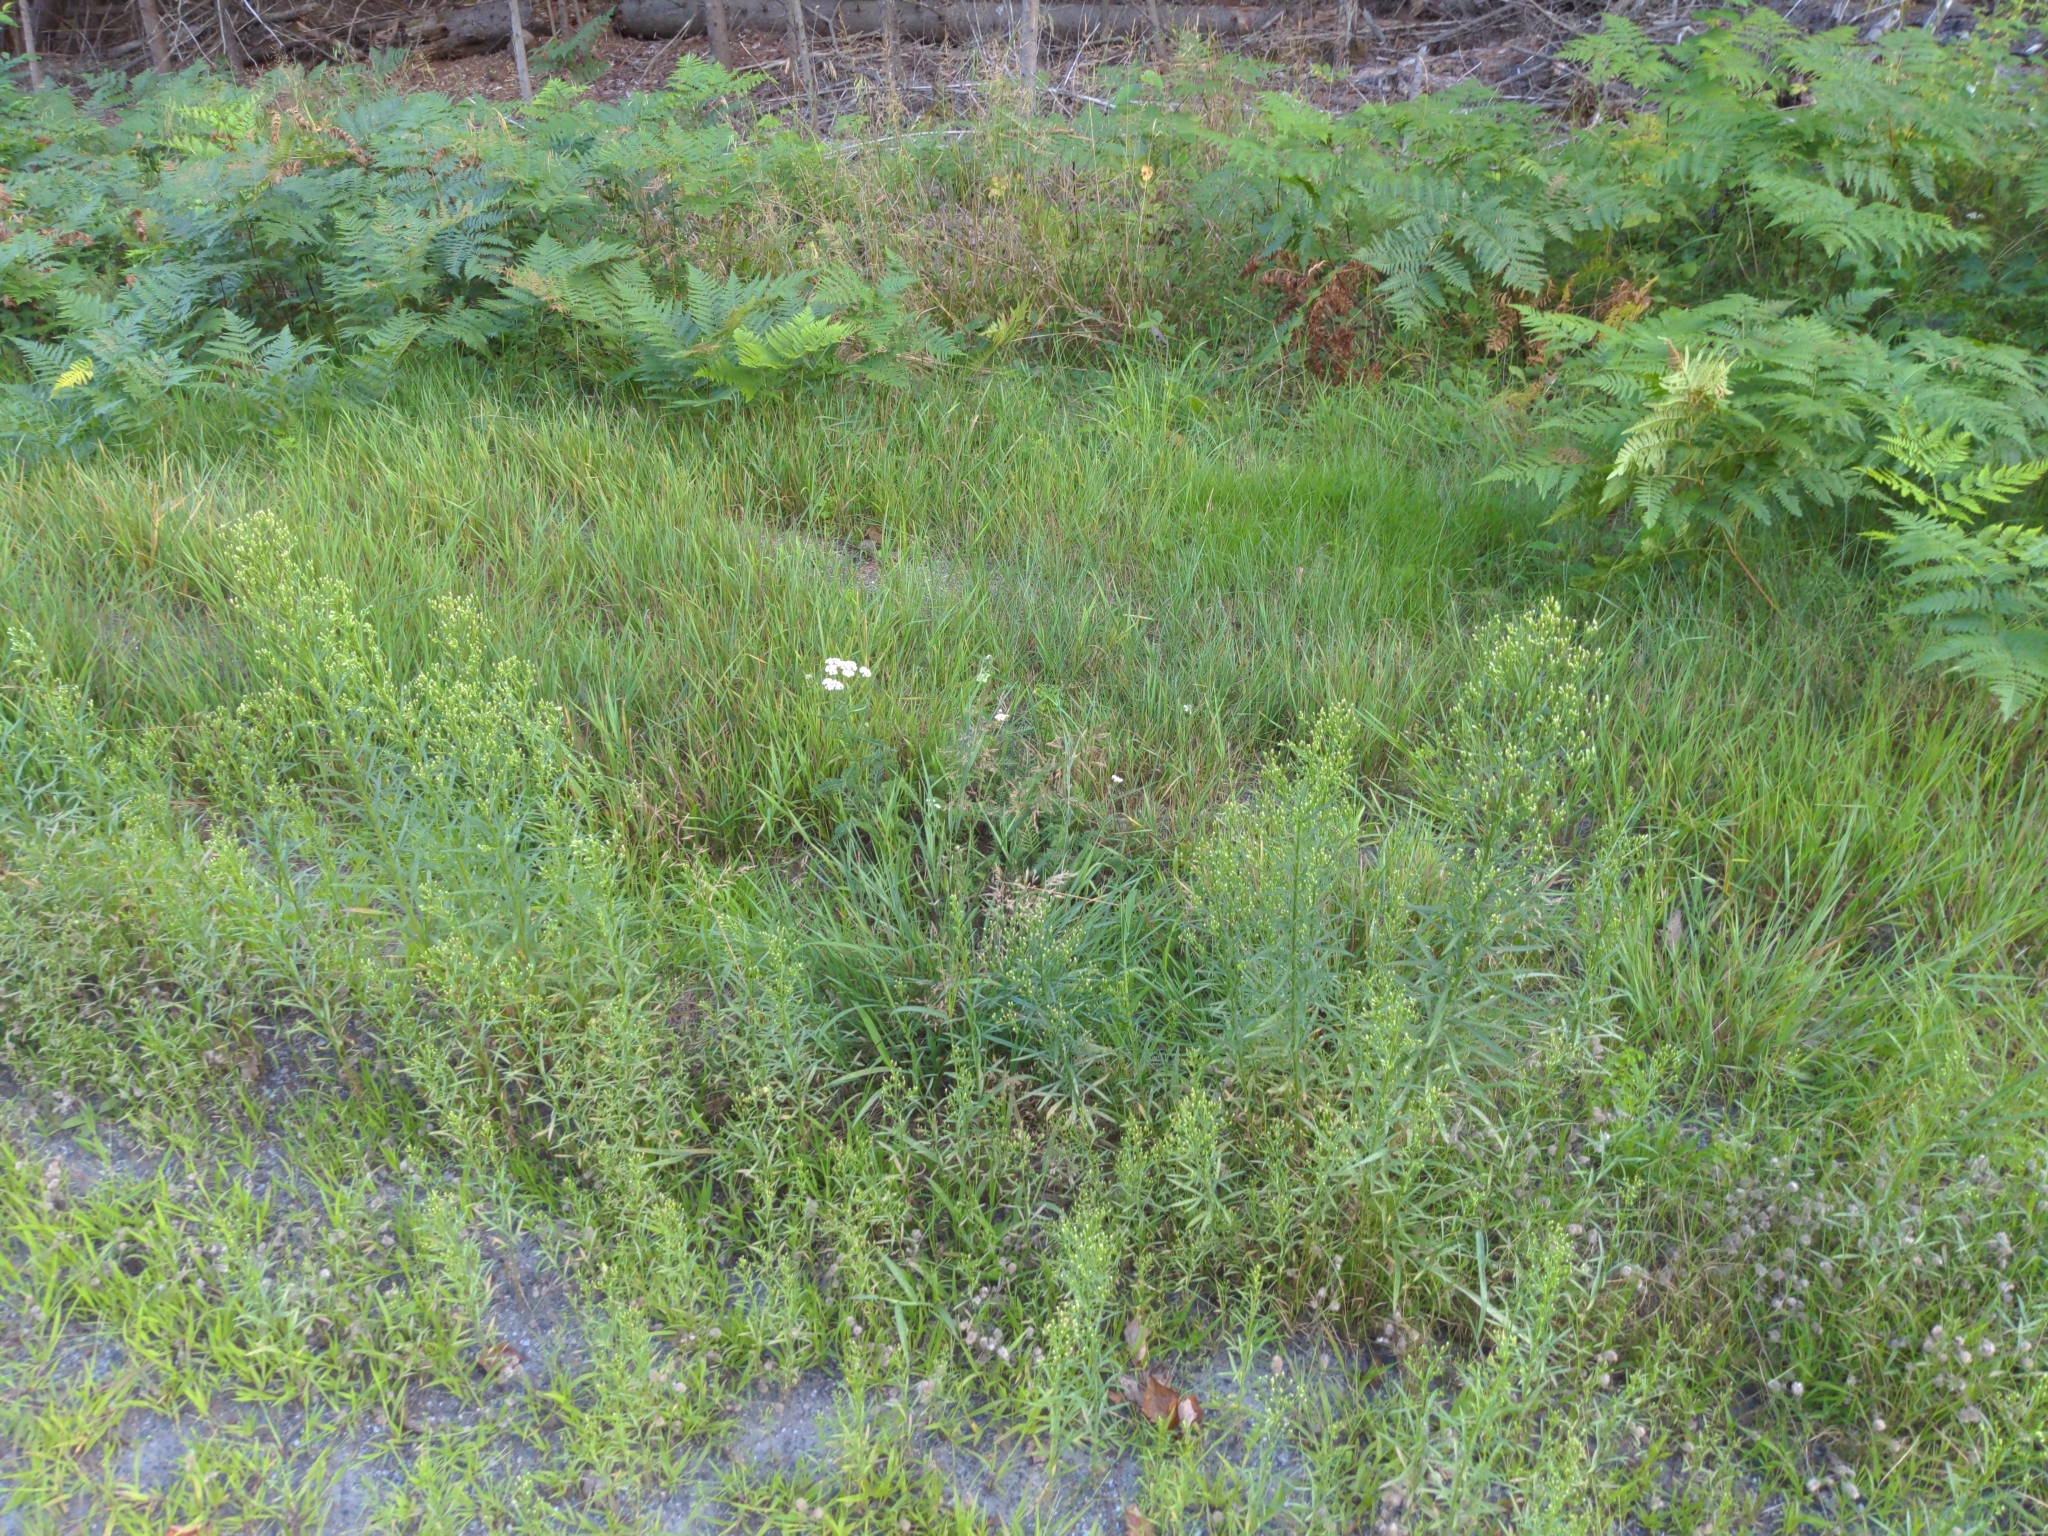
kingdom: Plantae
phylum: Tracheophyta
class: Magnoliopsida
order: Asterales
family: Asteraceae
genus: Erigeron
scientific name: Erigeron canadensis
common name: Canadian fleabane
